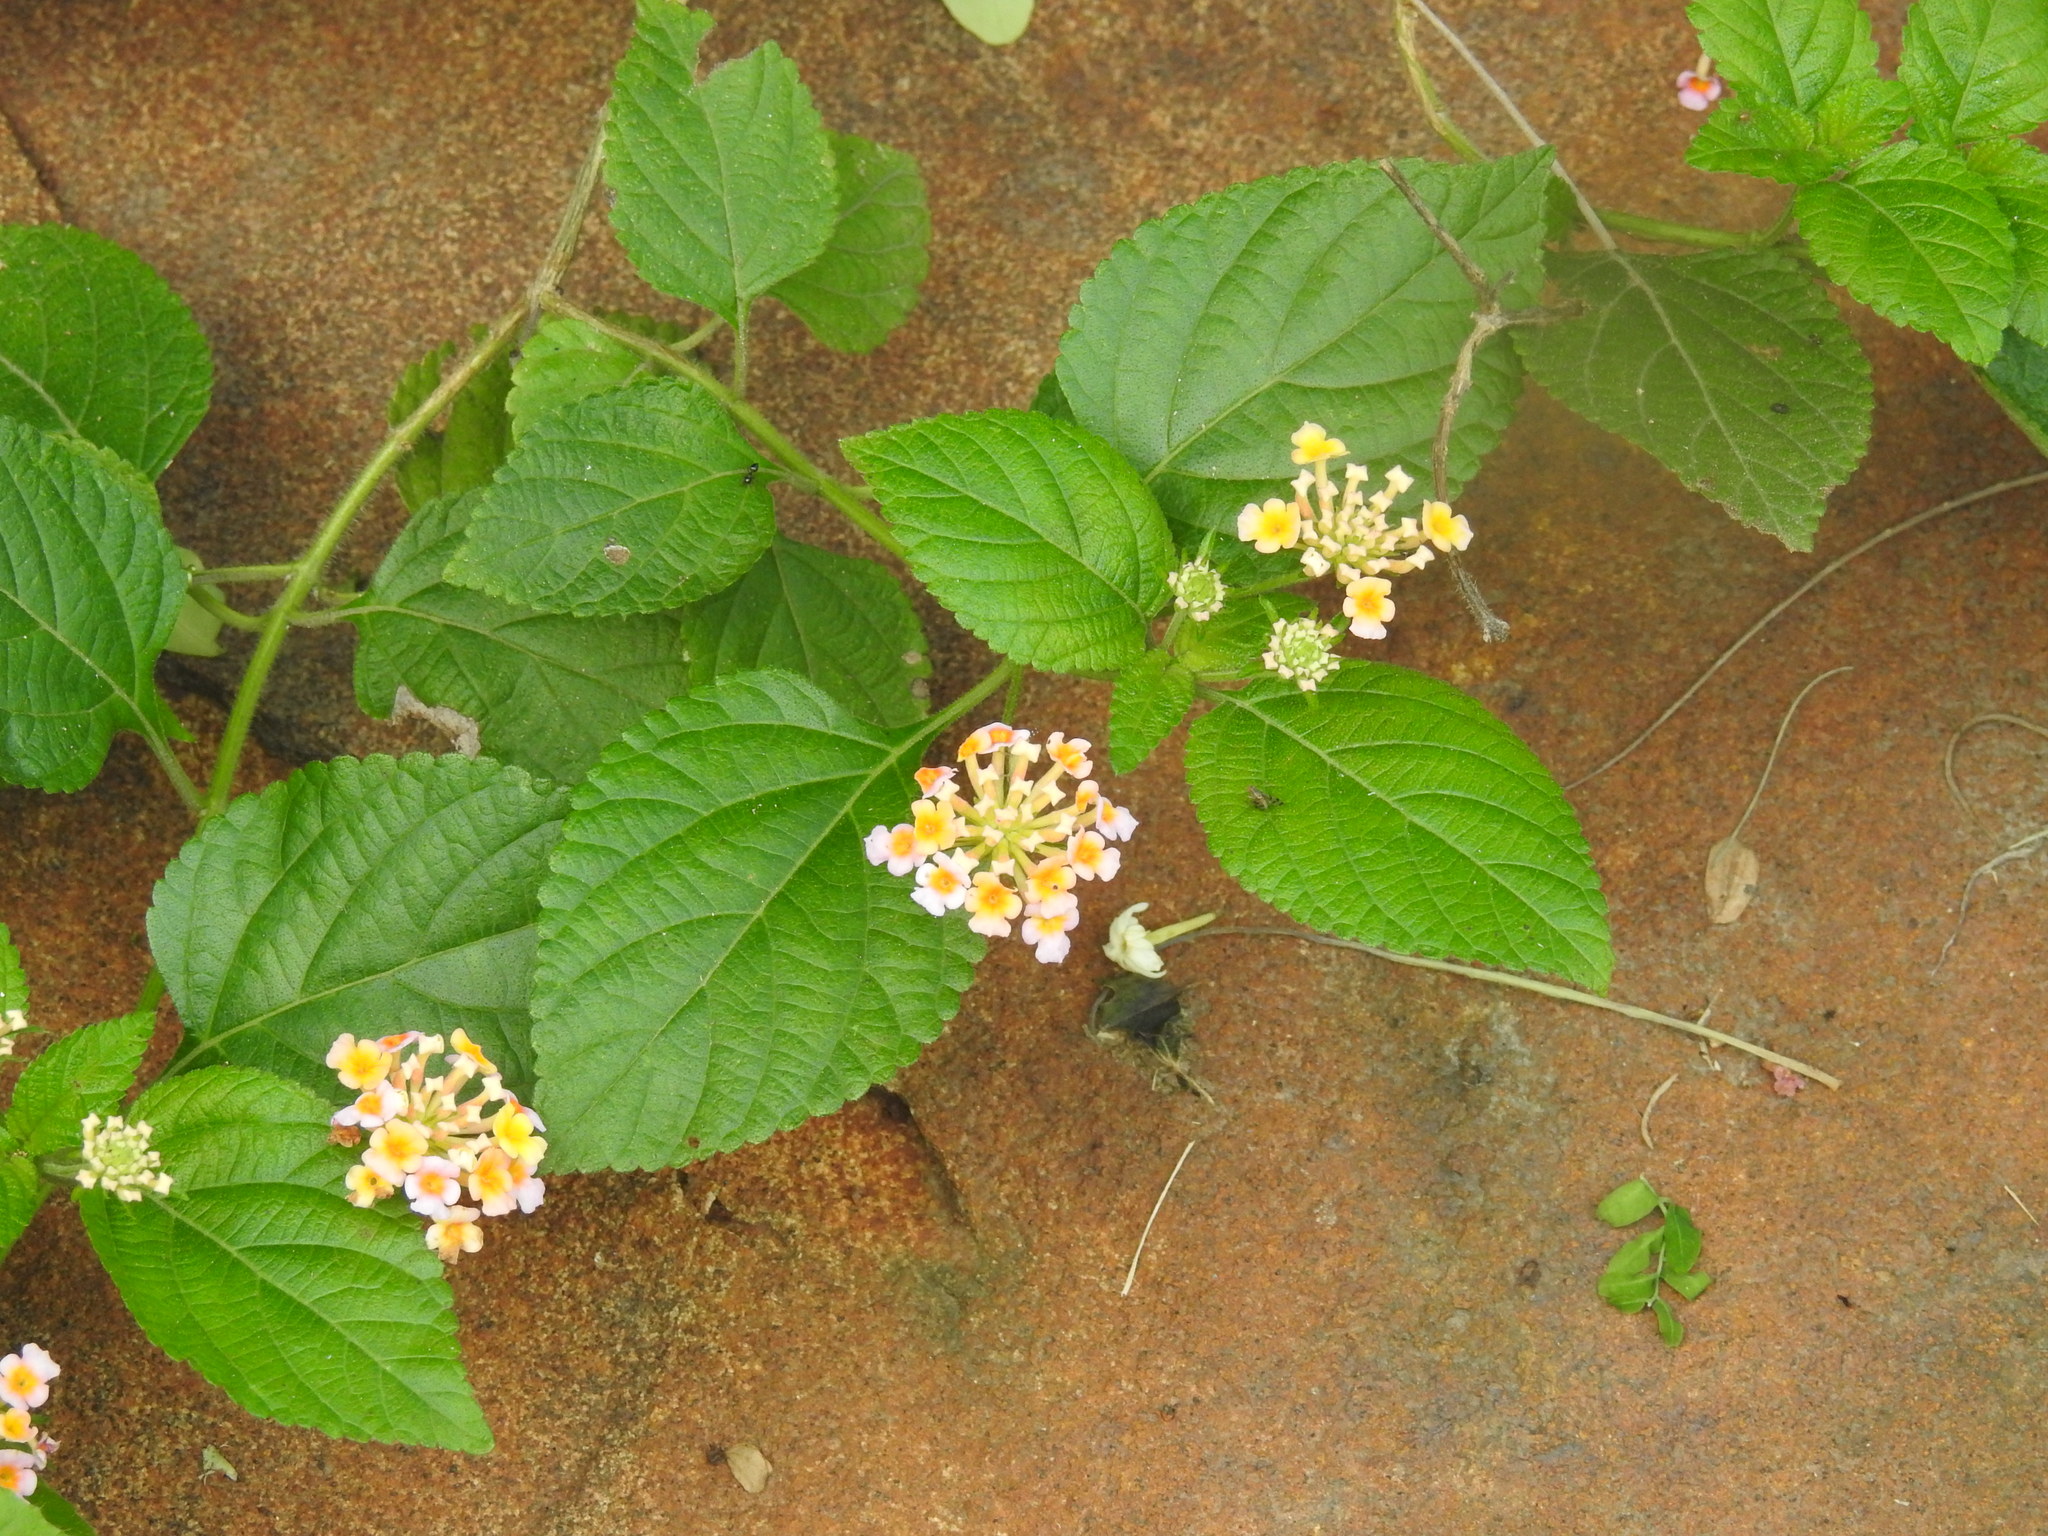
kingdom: Plantae
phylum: Tracheophyta
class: Magnoliopsida
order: Lamiales
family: Verbenaceae
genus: Lantana
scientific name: Lantana camara
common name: Lantana
